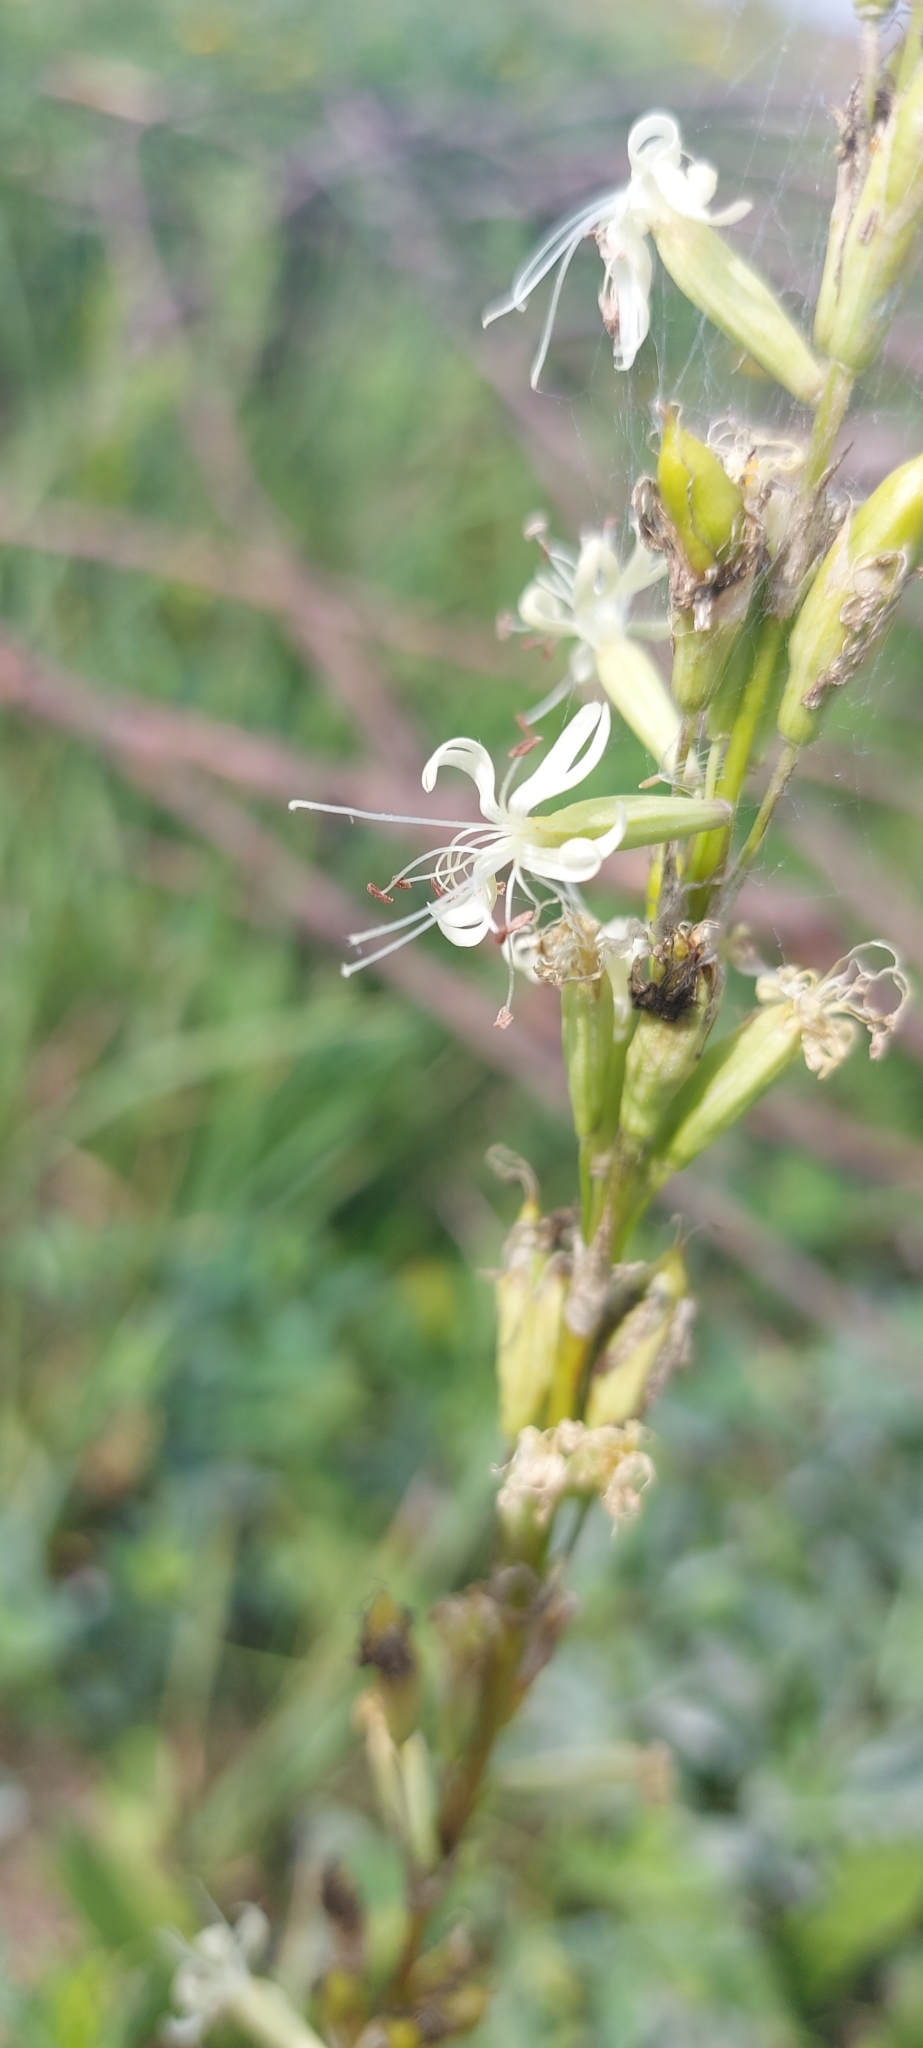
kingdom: Plantae
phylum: Tracheophyta
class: Magnoliopsida
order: Caryophyllales
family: Caryophyllaceae
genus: Silene
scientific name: Silene tatarica
